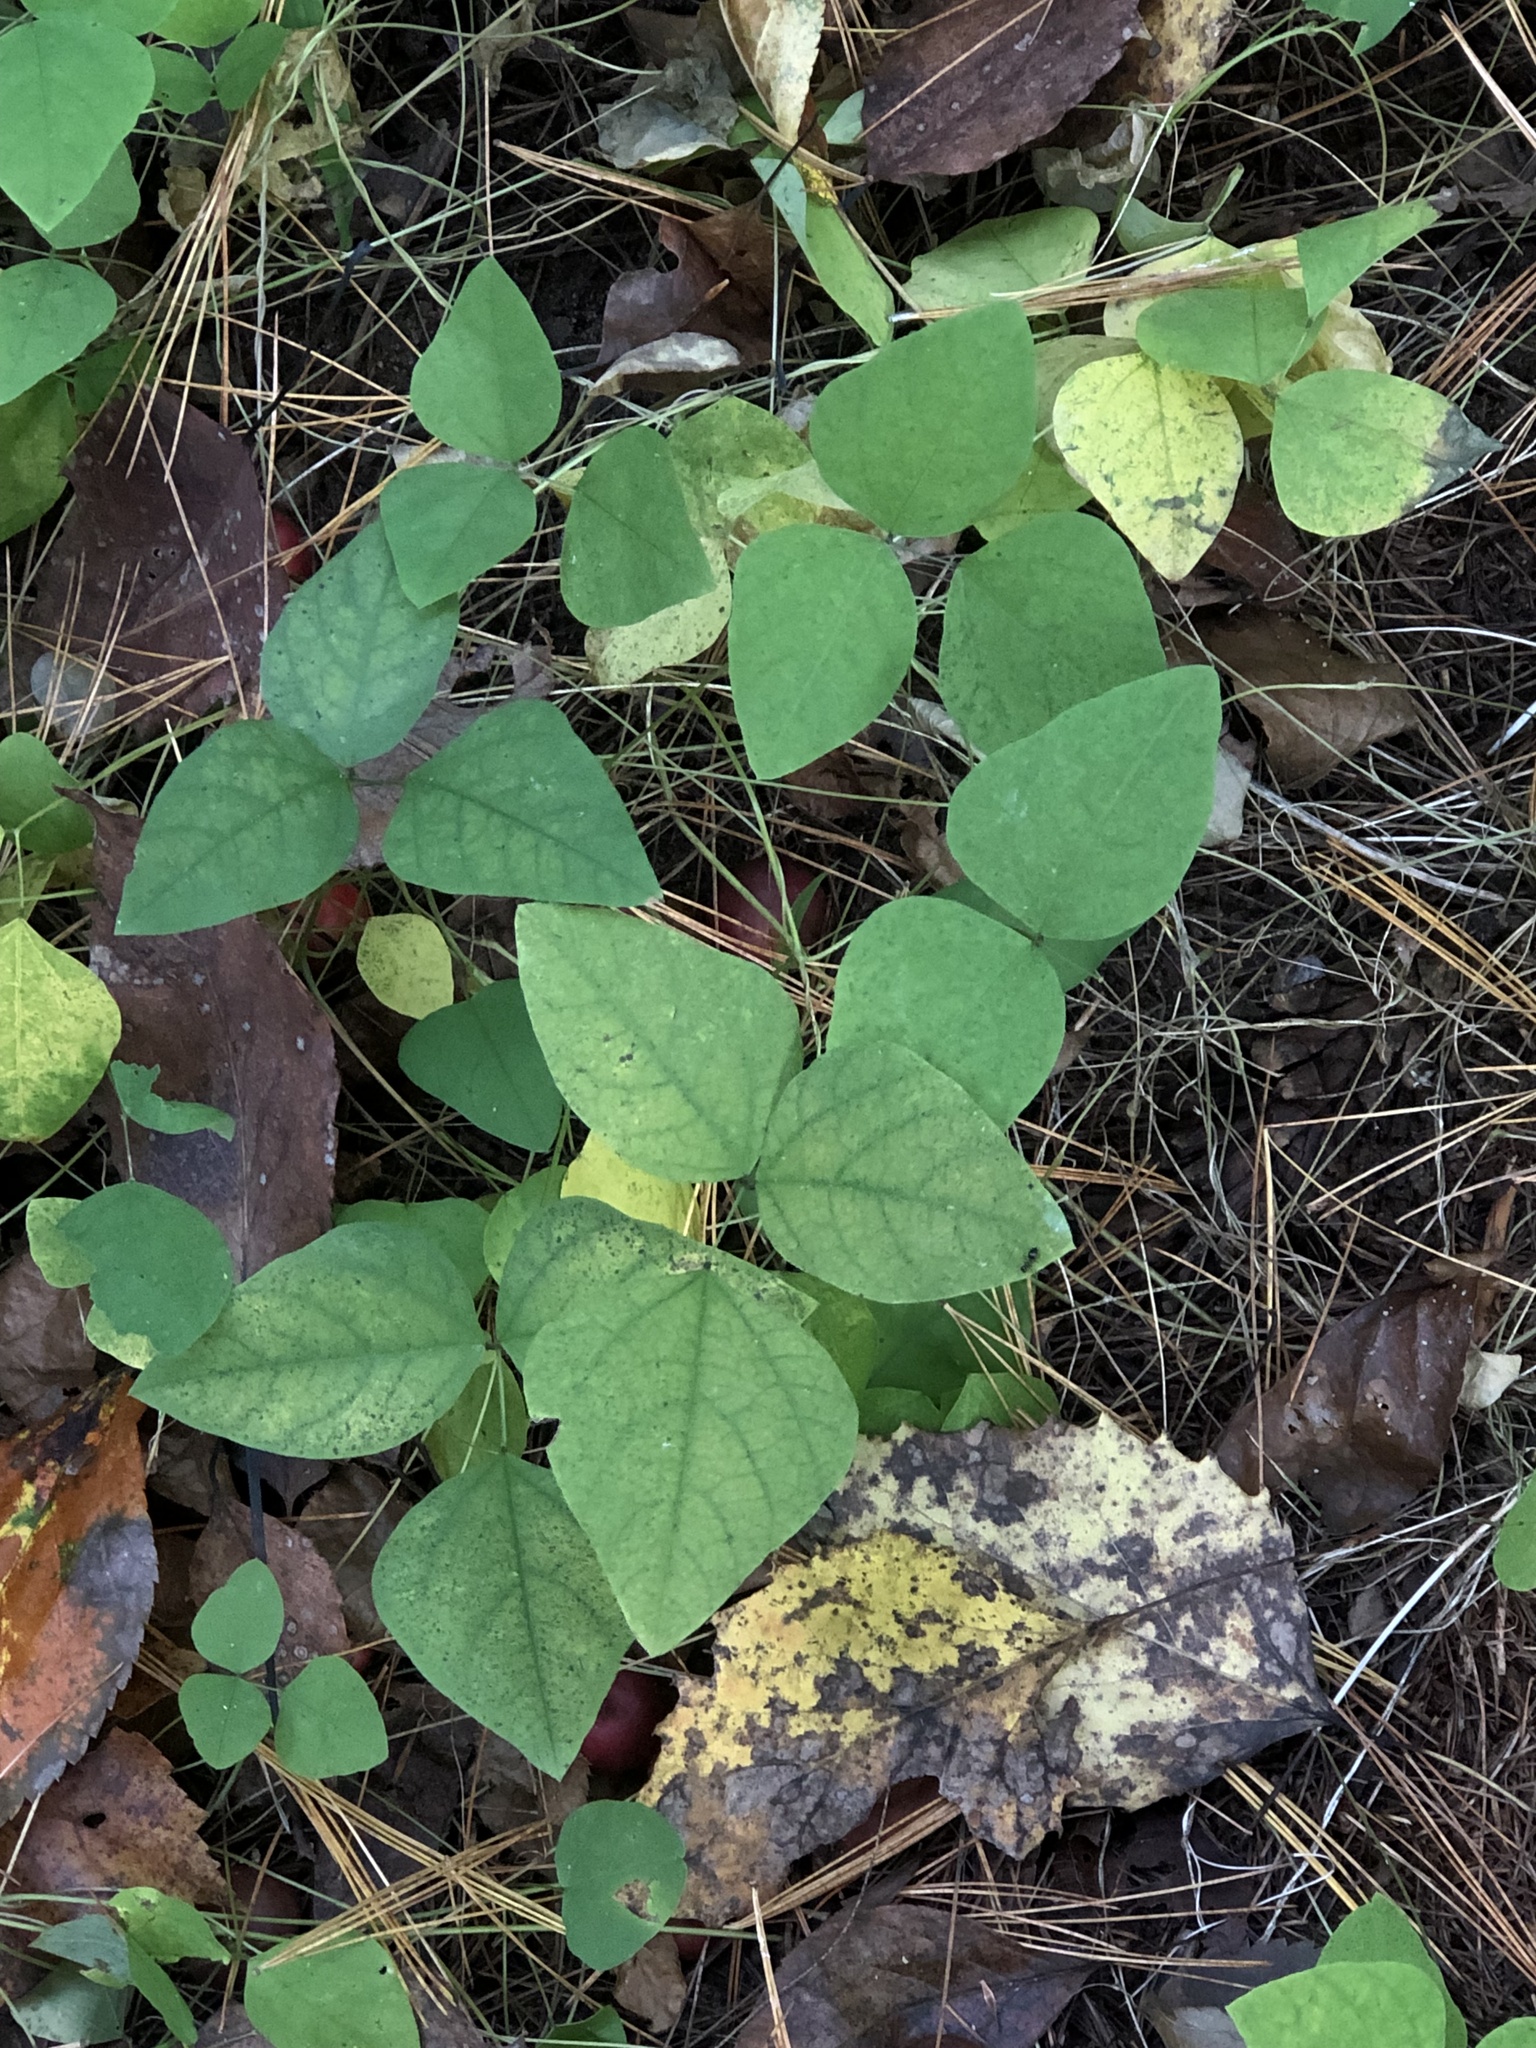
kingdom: Plantae
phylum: Tracheophyta
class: Magnoliopsida
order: Fabales
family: Fabaceae
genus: Amphicarpaea
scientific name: Amphicarpaea bracteata
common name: American hog peanut
